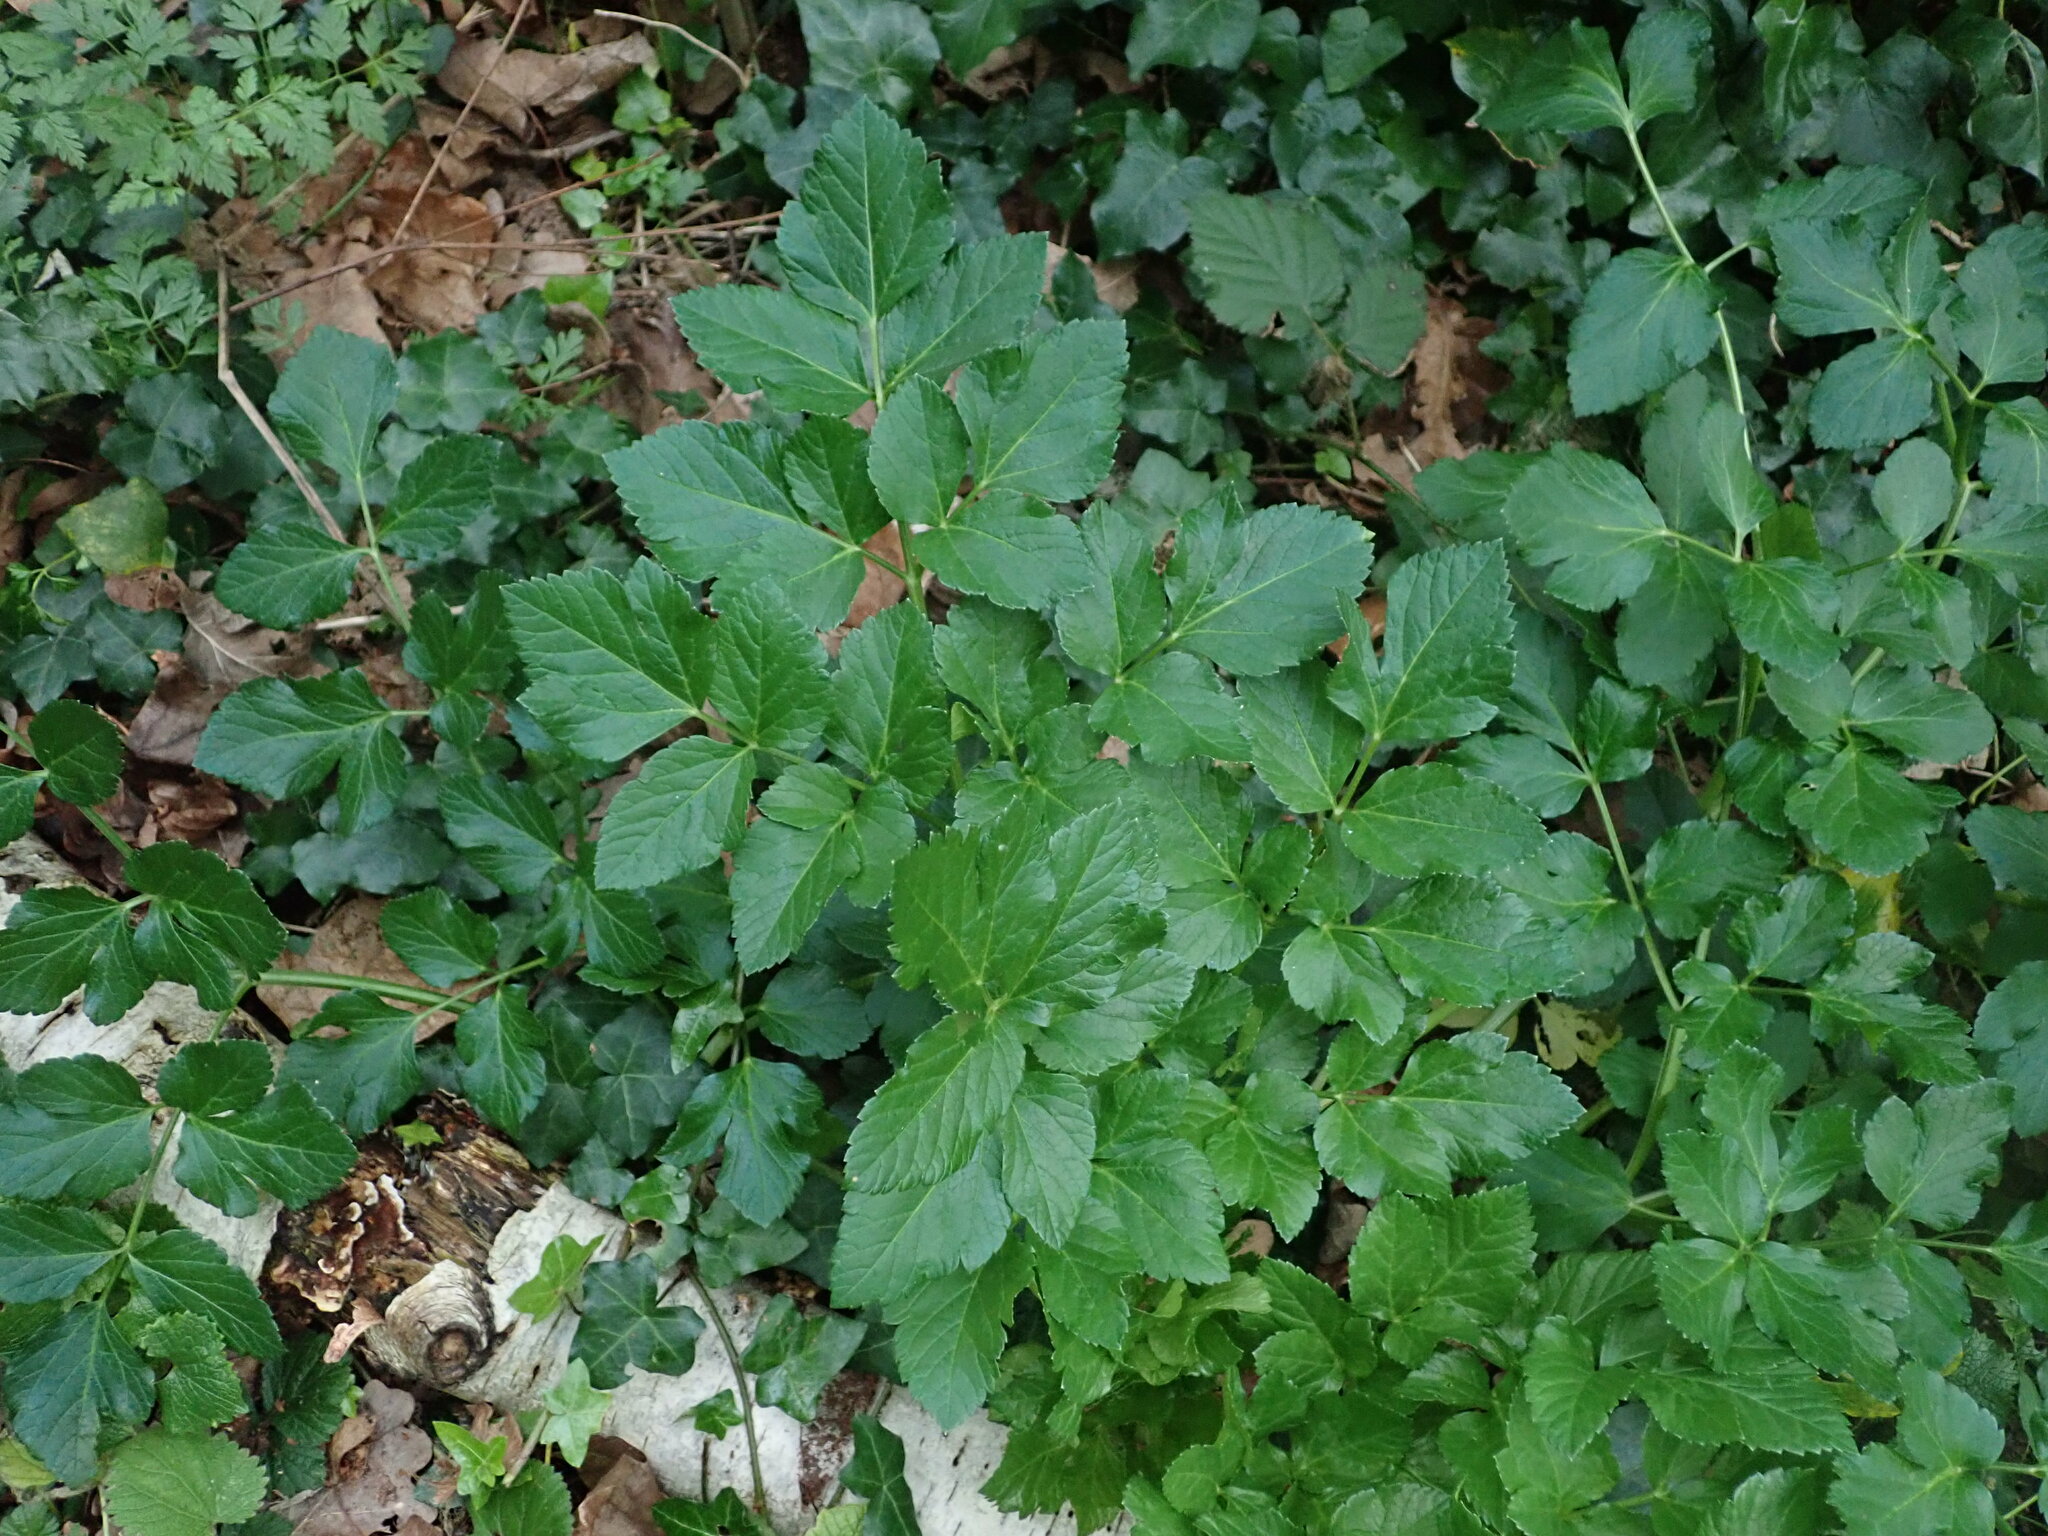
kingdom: Plantae
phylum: Tracheophyta
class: Magnoliopsida
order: Apiales
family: Apiaceae
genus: Smyrnium
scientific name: Smyrnium olusatrum
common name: Alexanders
